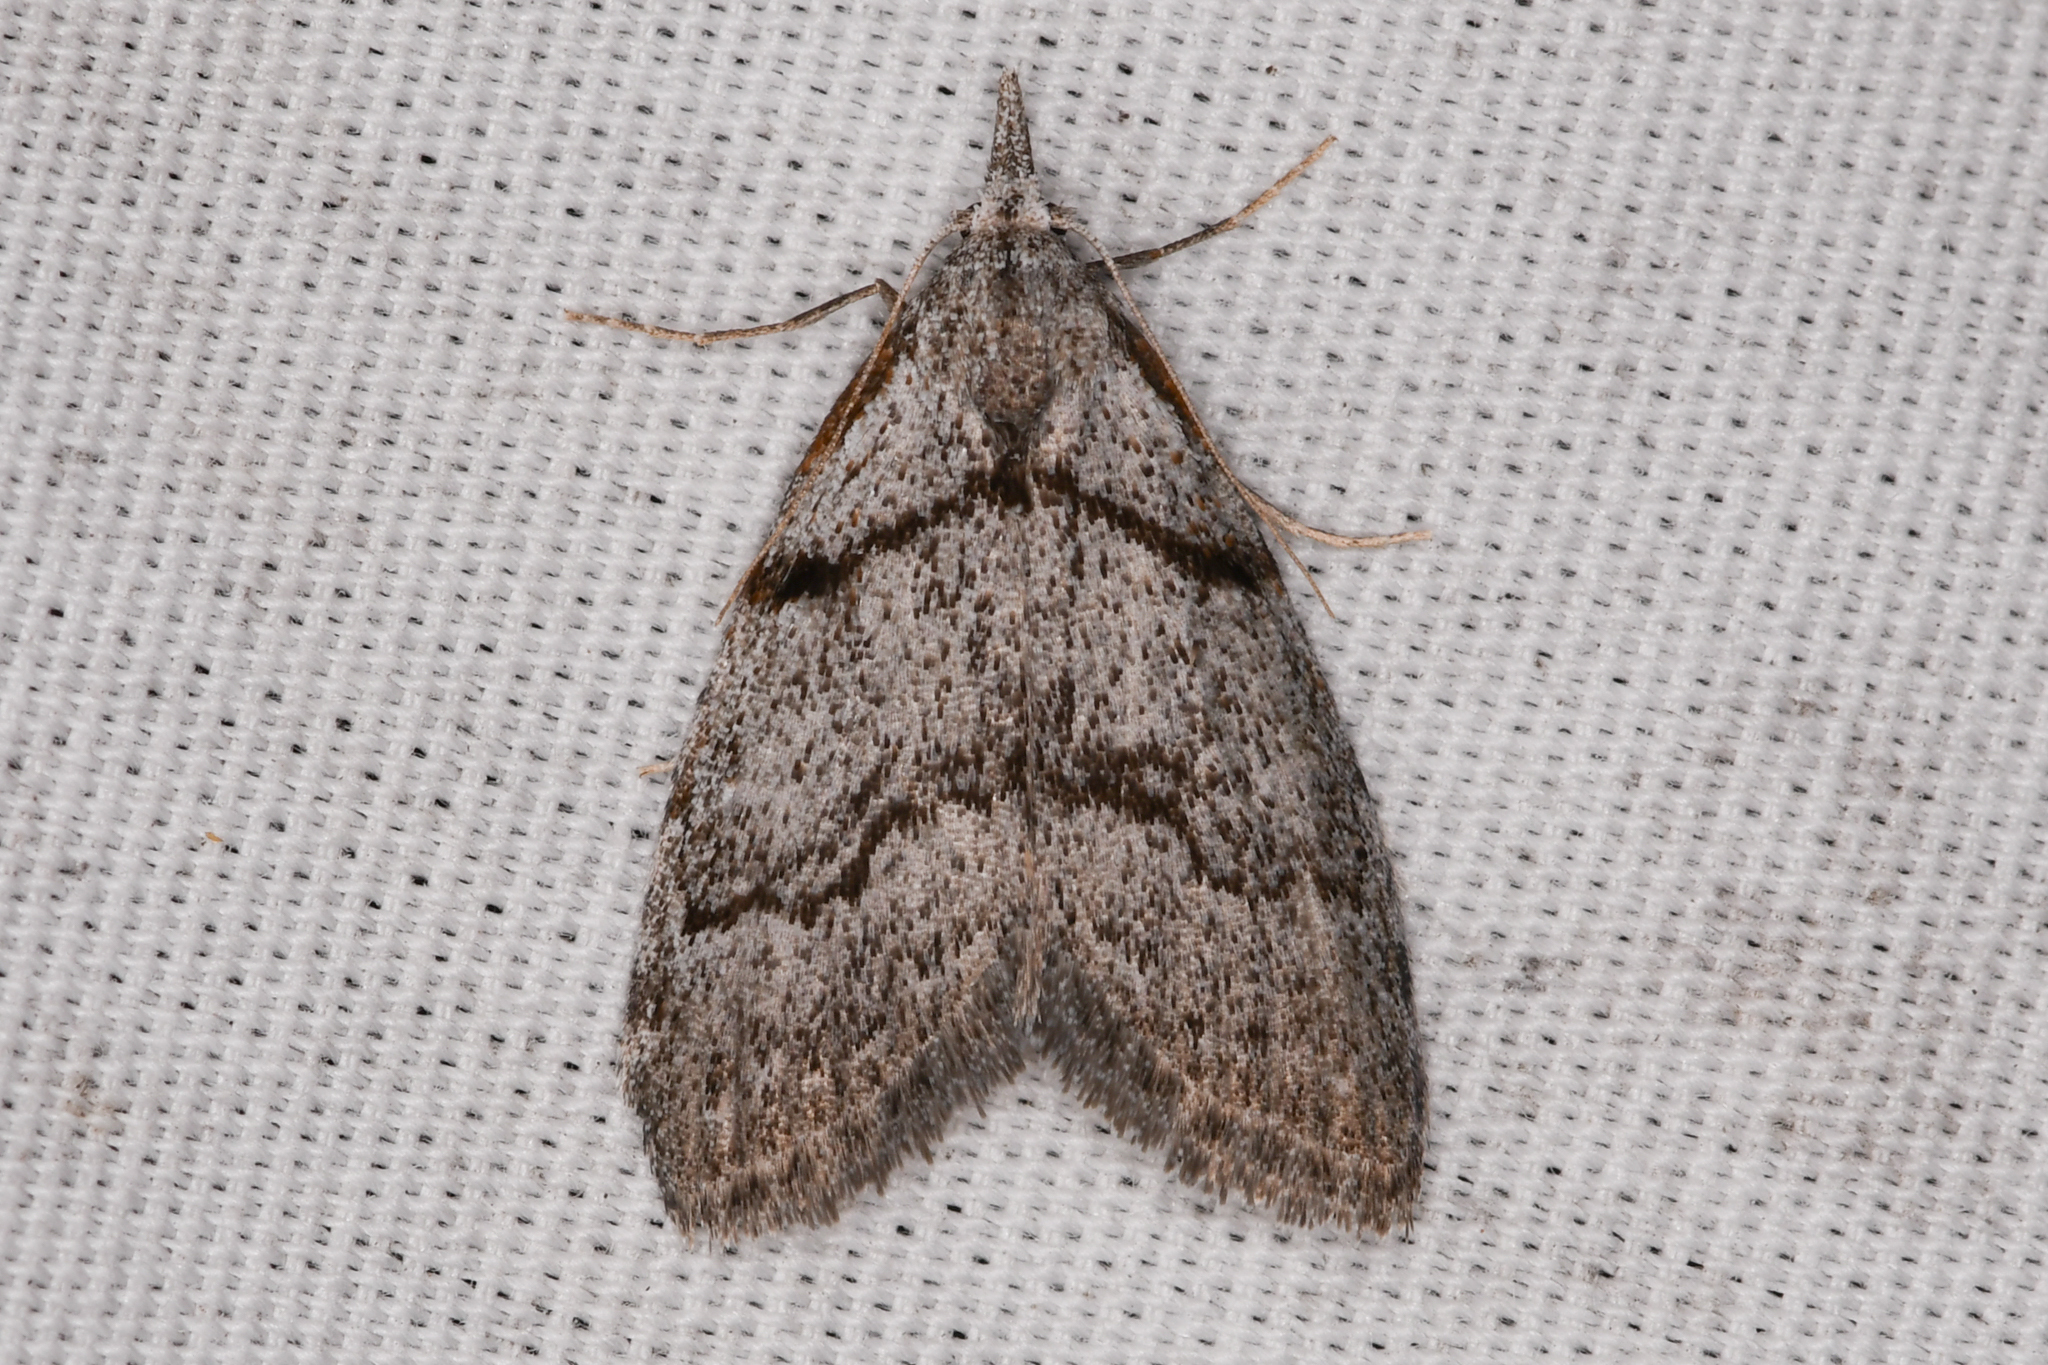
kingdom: Animalia
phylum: Arthropoda
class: Insecta
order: Lepidoptera
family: Nolidae
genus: Nola
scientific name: Nola minna
